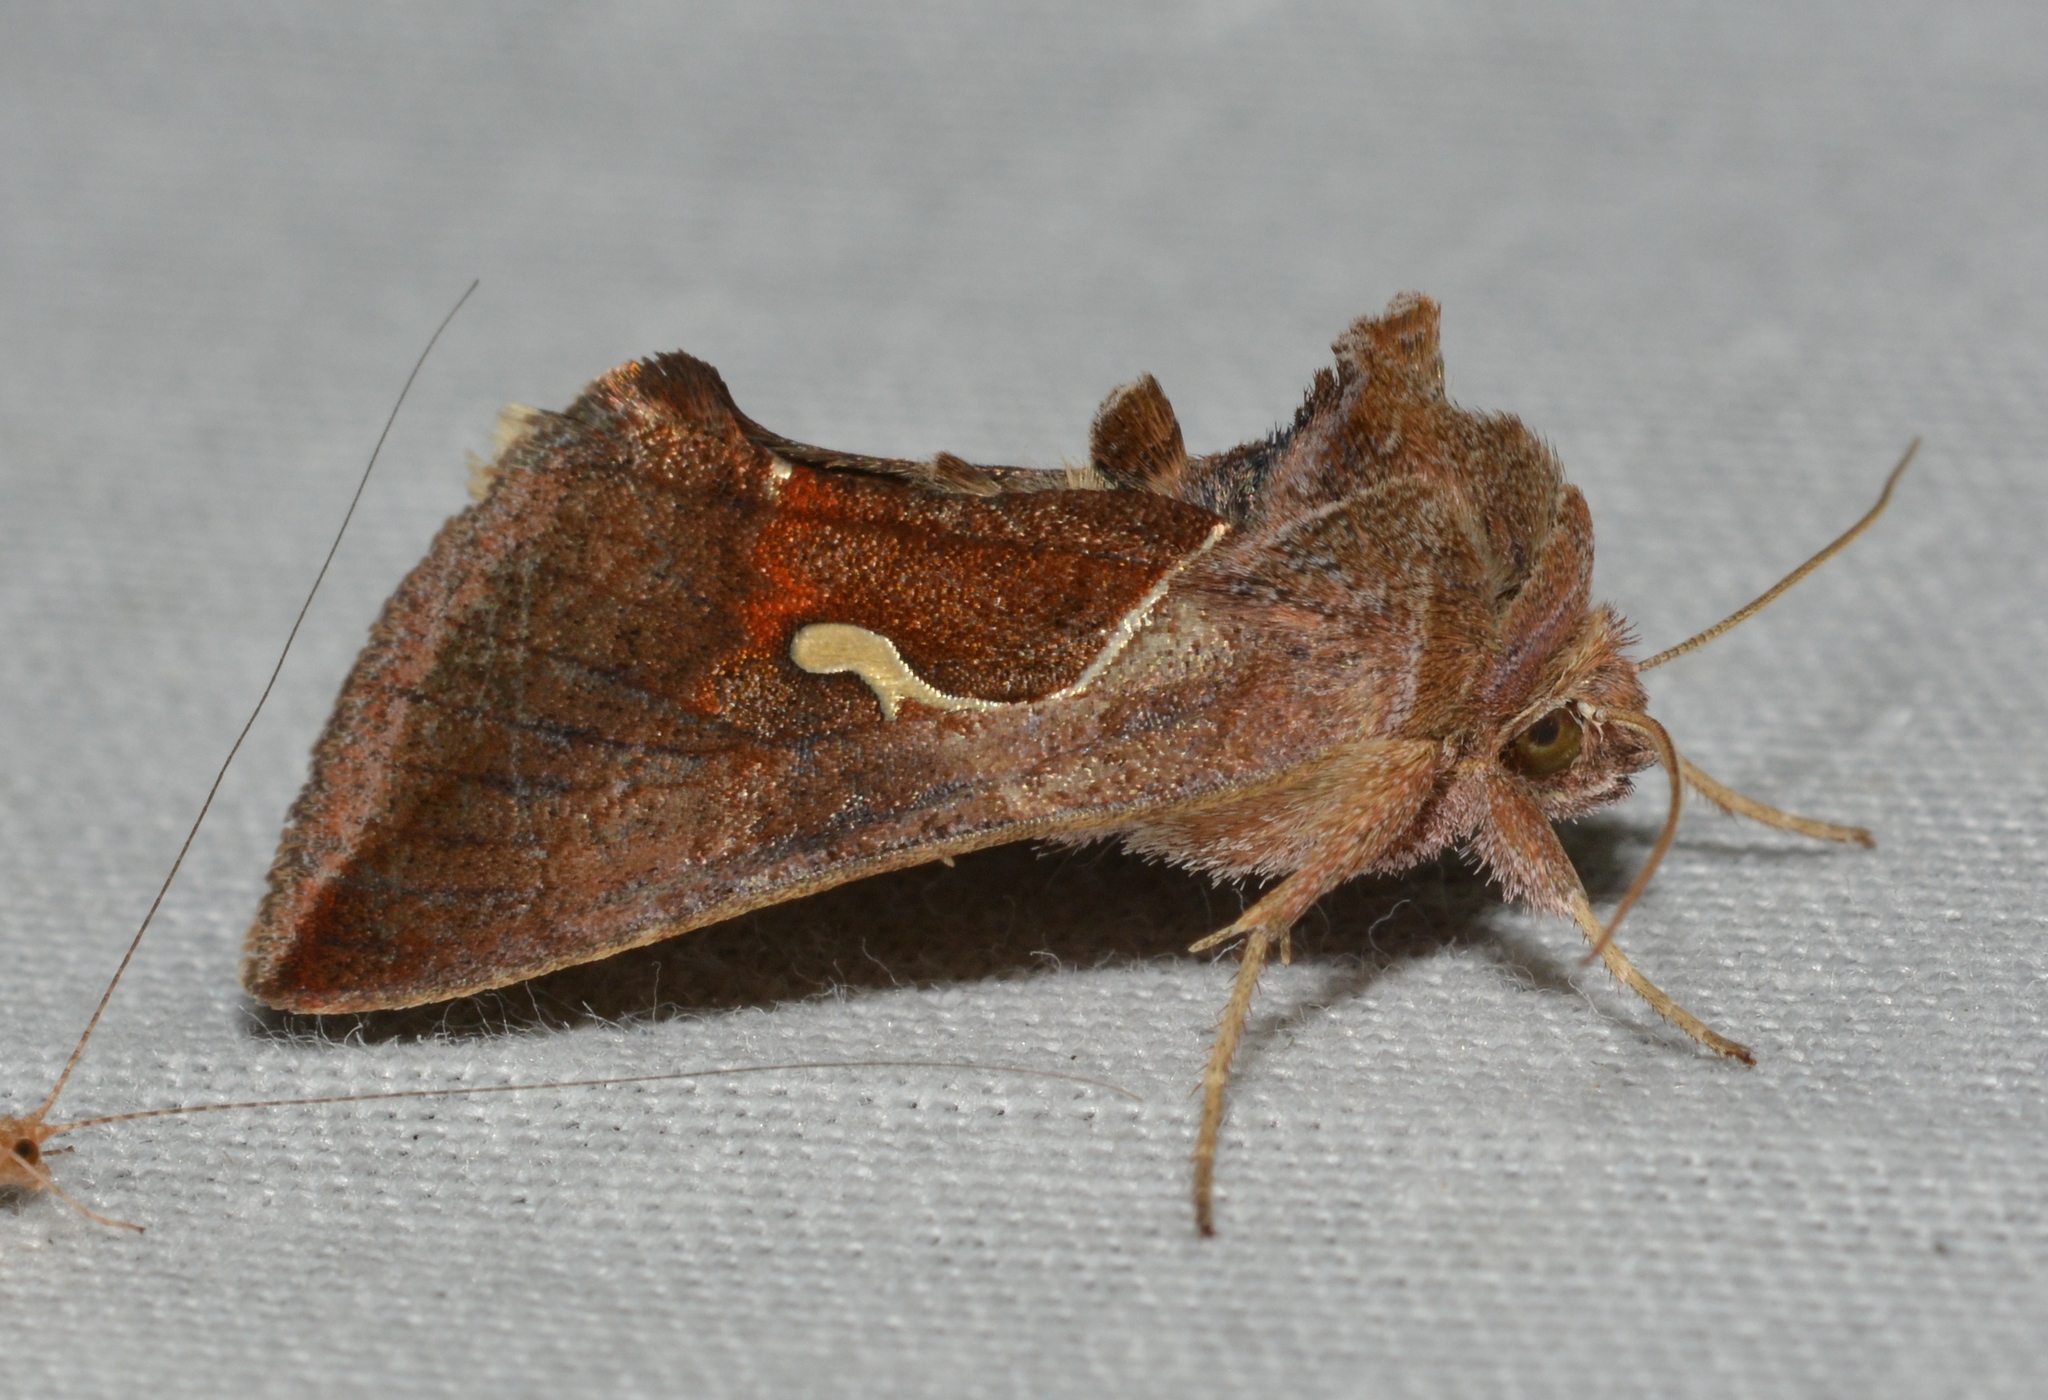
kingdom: Animalia
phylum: Arthropoda
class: Insecta
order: Lepidoptera
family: Noctuidae
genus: Anagrapha
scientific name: Anagrapha falcifera
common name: Celery looper
